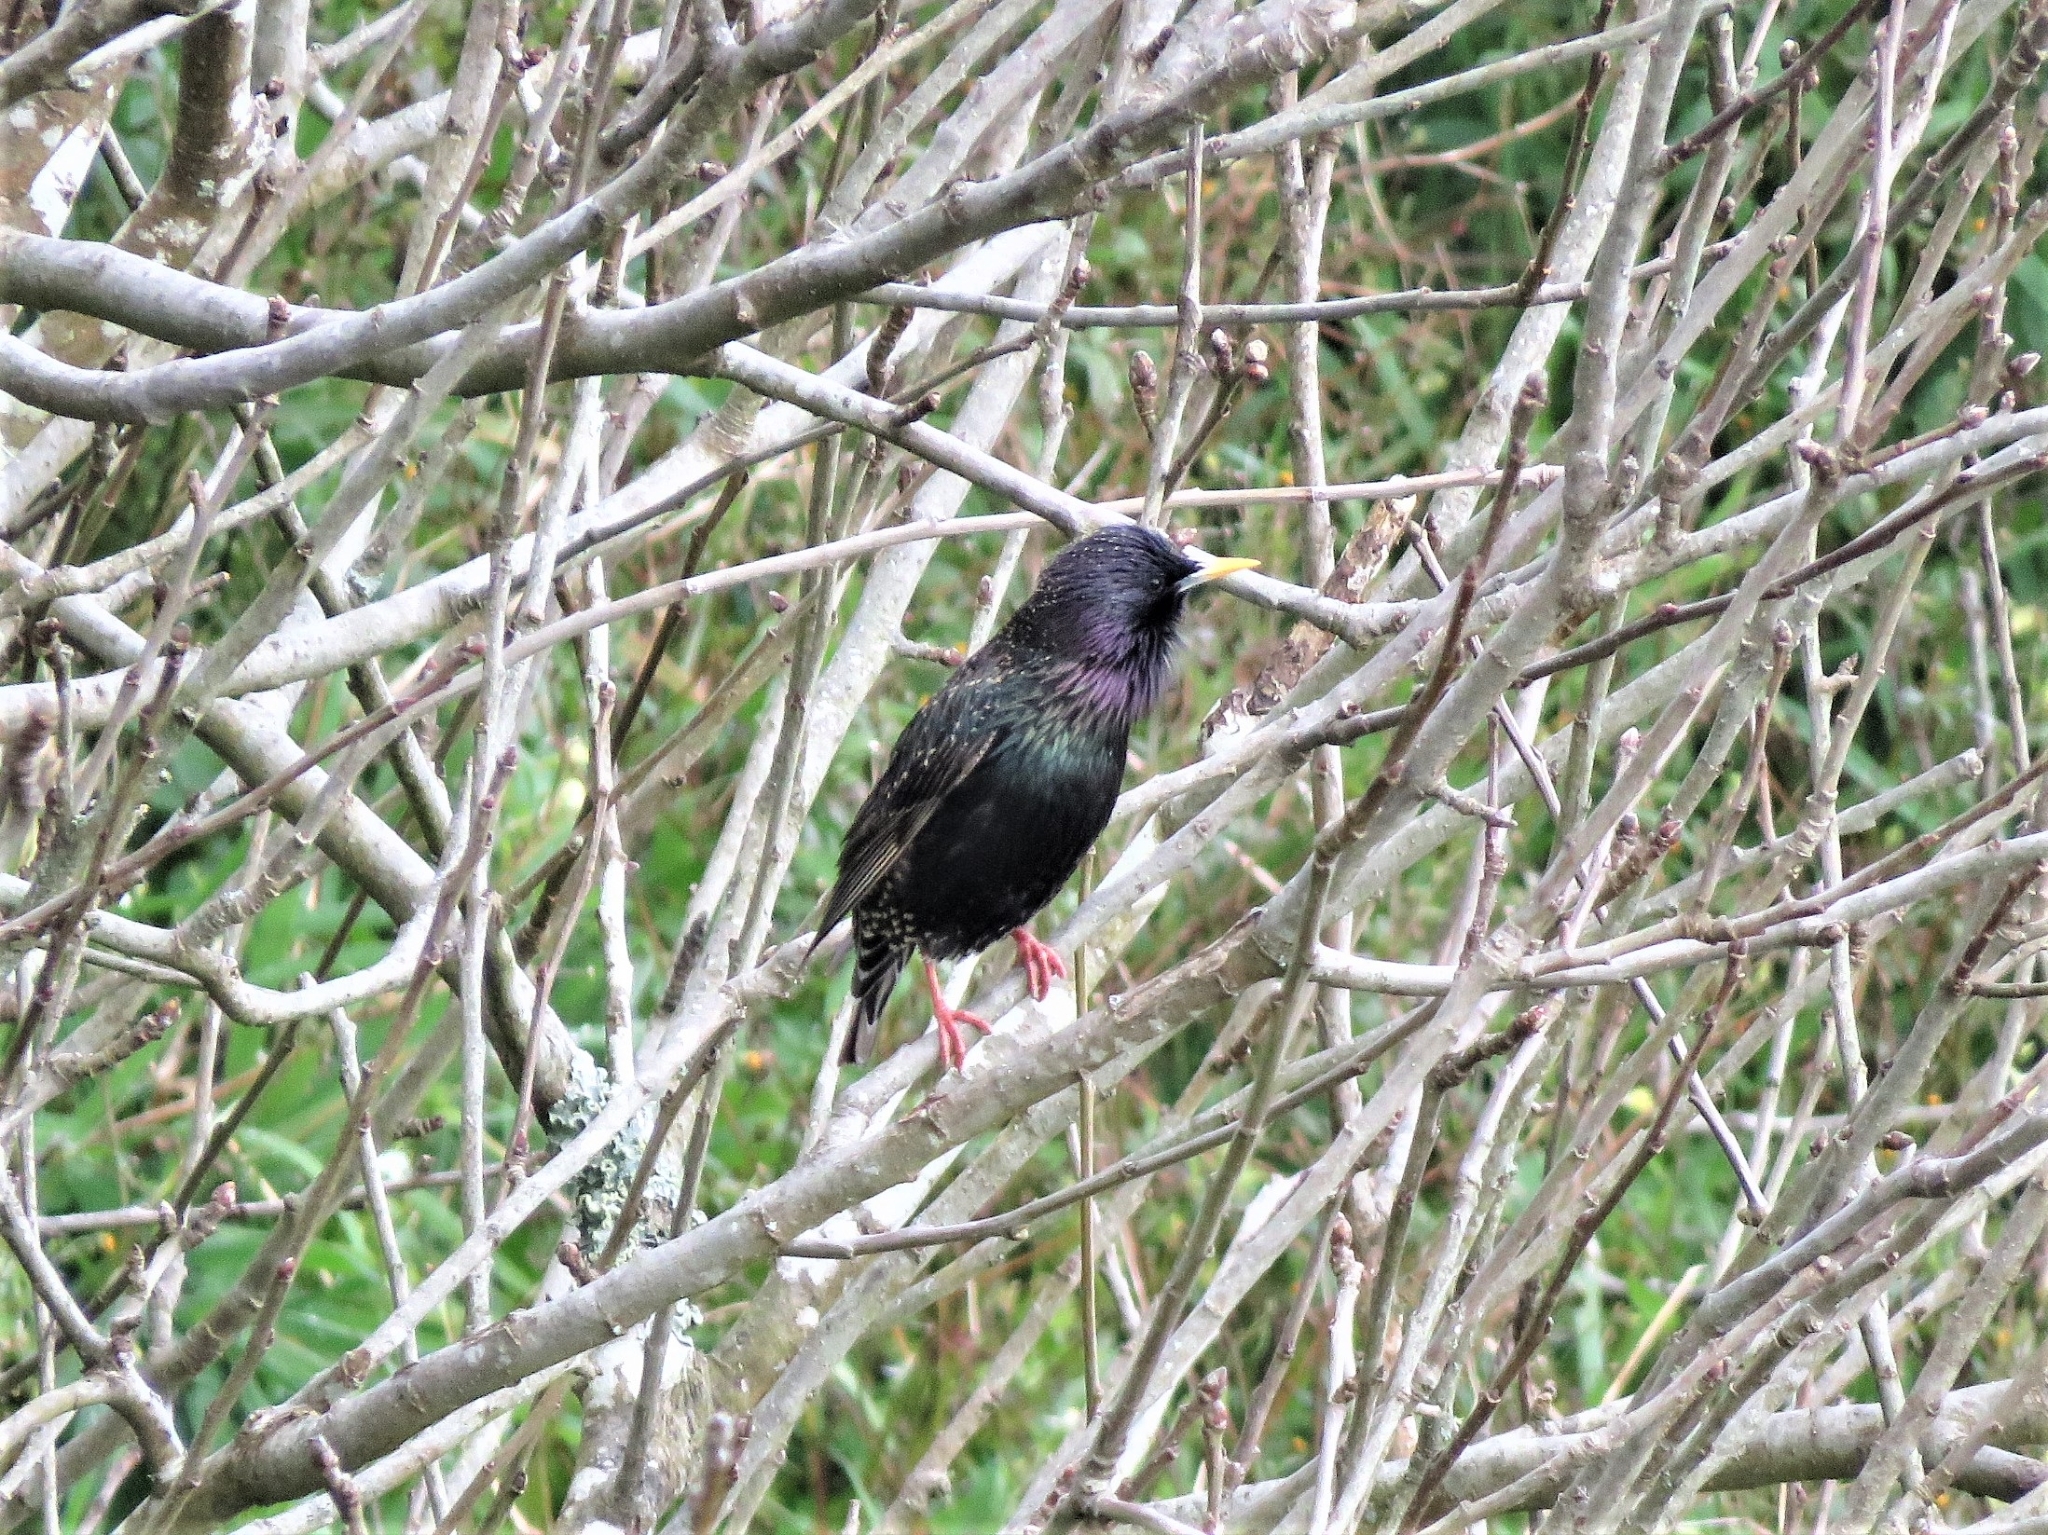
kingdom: Animalia
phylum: Chordata
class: Aves
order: Passeriformes
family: Sturnidae
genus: Sturnus
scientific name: Sturnus vulgaris
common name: Common starling
